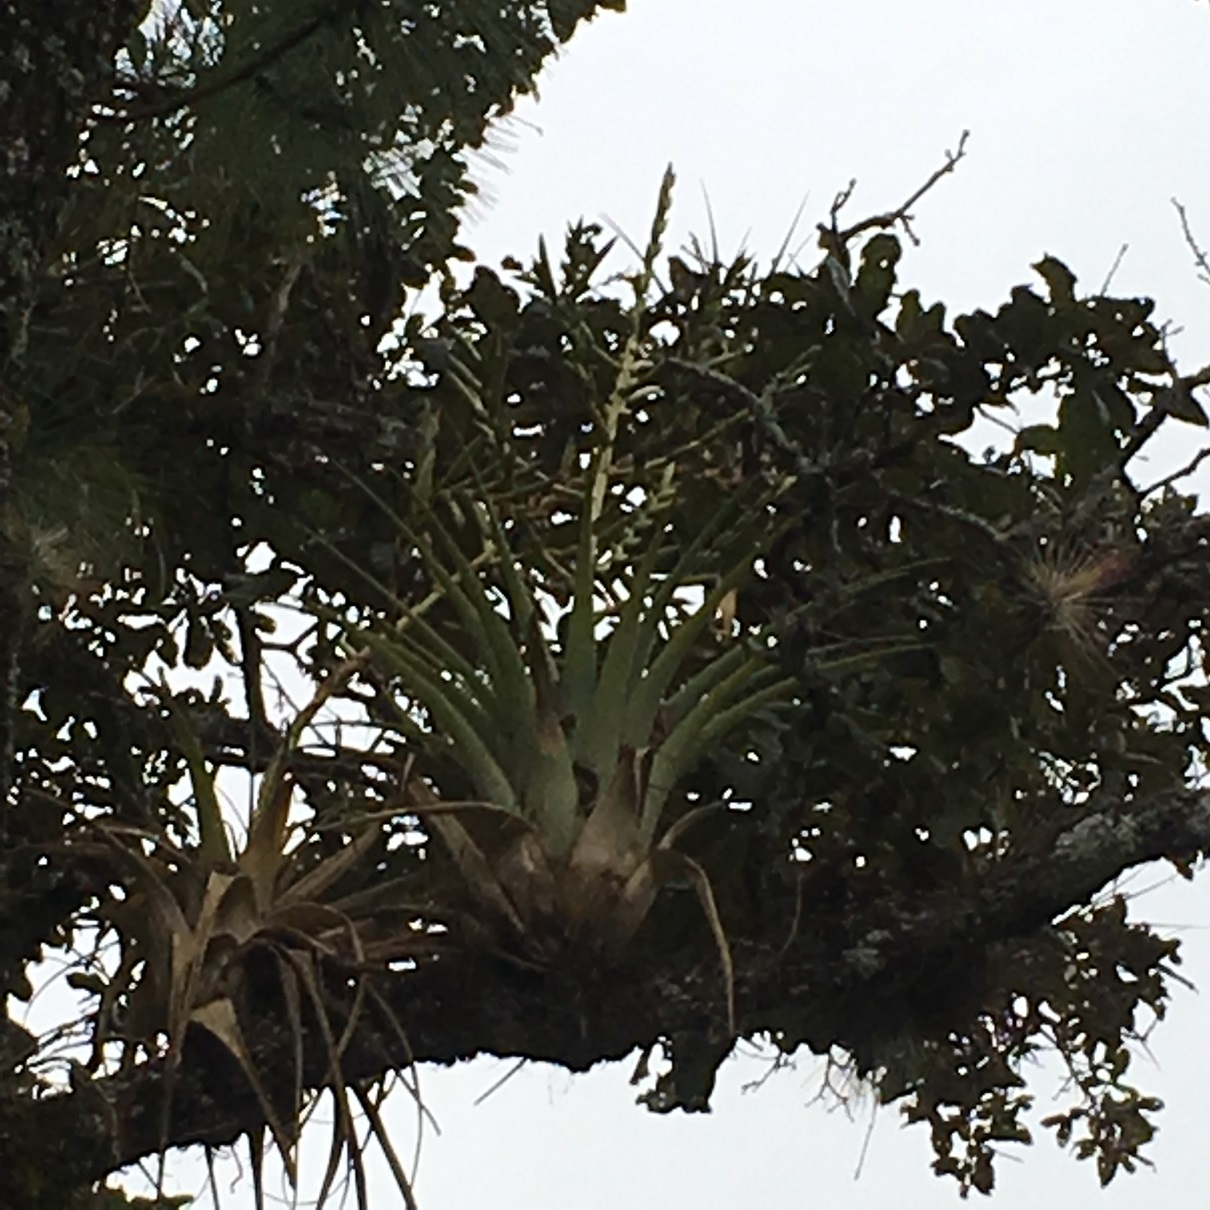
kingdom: Plantae
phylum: Tracheophyta
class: Liliopsida
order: Poales
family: Bromeliaceae
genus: Tillandsia
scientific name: Tillandsia comitanensis
